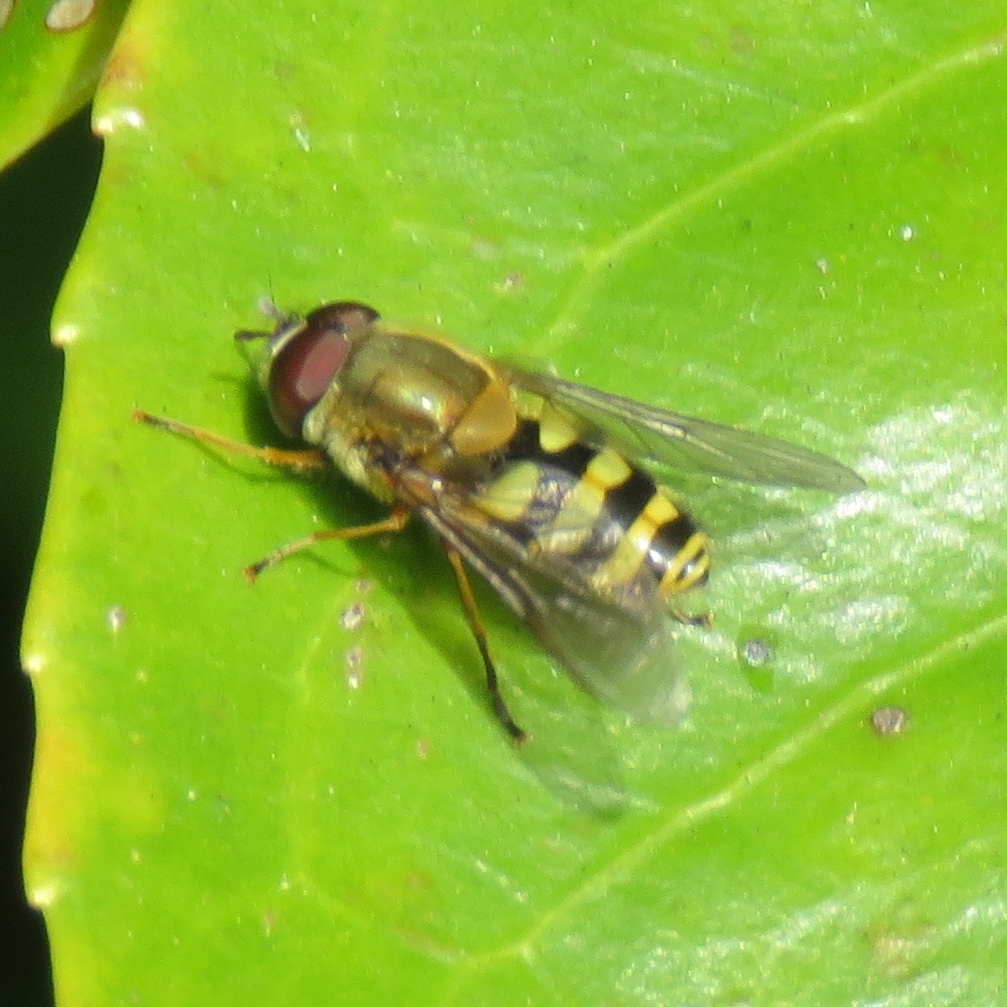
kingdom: Animalia
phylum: Arthropoda
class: Insecta
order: Diptera
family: Syrphidae
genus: Syrphus
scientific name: Syrphus
